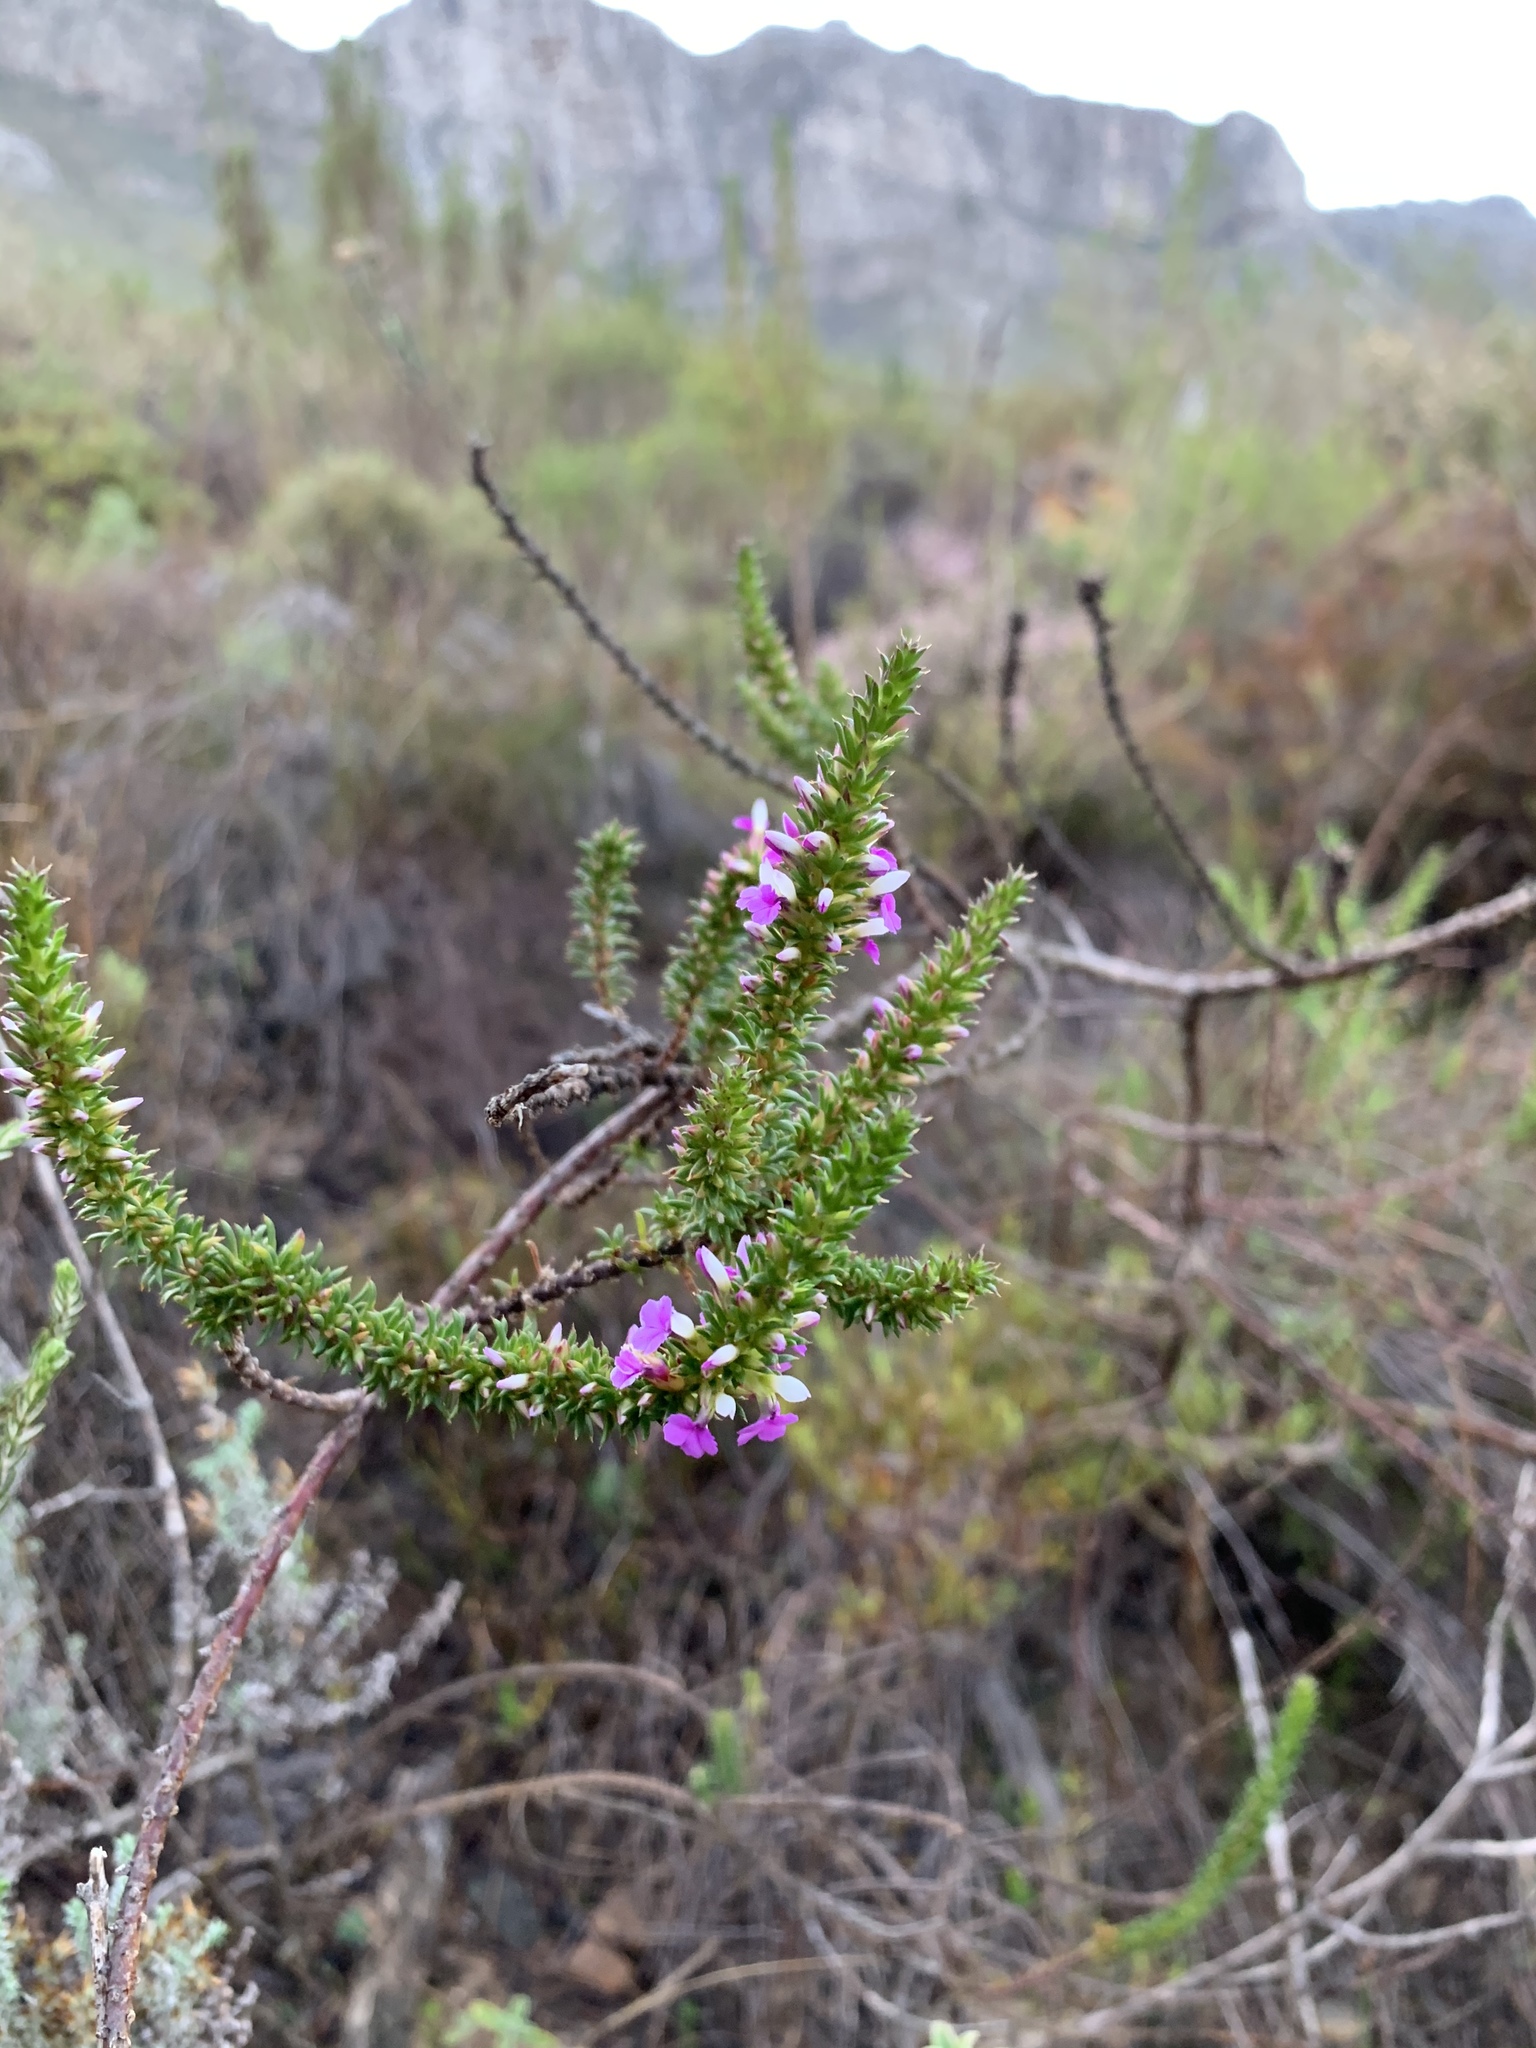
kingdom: Plantae
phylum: Tracheophyta
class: Magnoliopsida
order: Fabales
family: Polygalaceae
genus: Muraltia
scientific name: Muraltia heisteria
